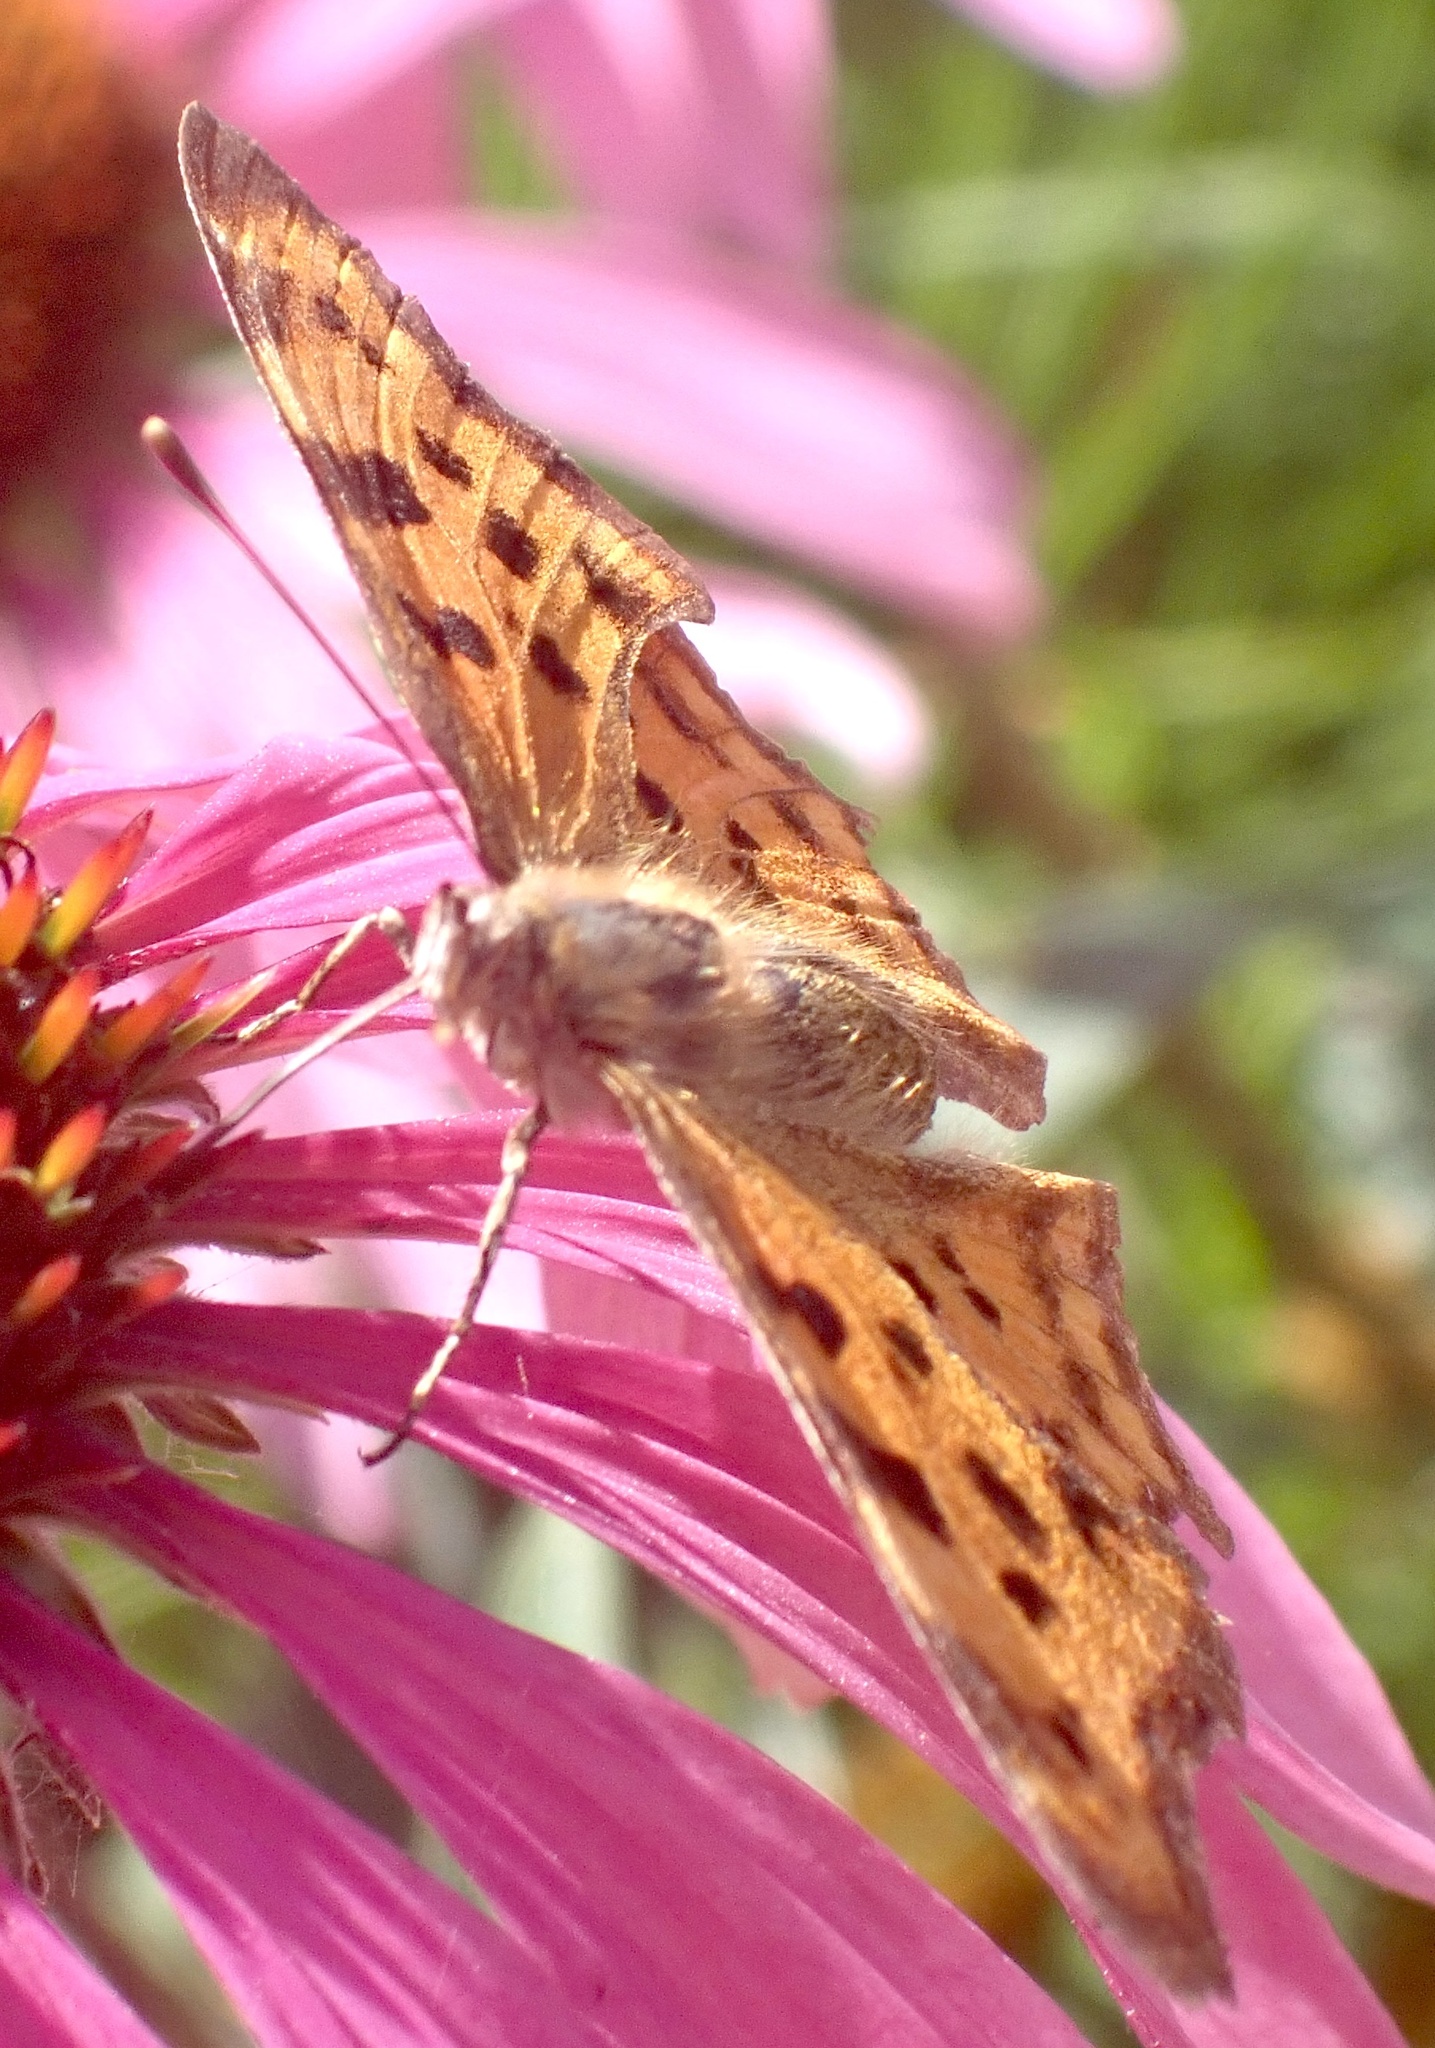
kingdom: Animalia
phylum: Arthropoda
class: Insecta
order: Lepidoptera
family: Nymphalidae
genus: Polygonia
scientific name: Polygonia c-album
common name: Comma
